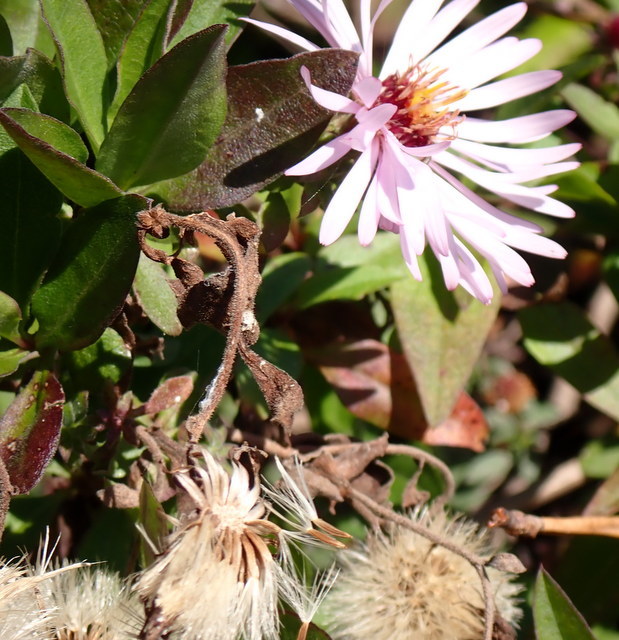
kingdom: Plantae
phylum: Tracheophyta
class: Magnoliopsida
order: Asterales
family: Asteraceae
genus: Ampelaster
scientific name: Ampelaster carolinianus
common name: Climbing aster
